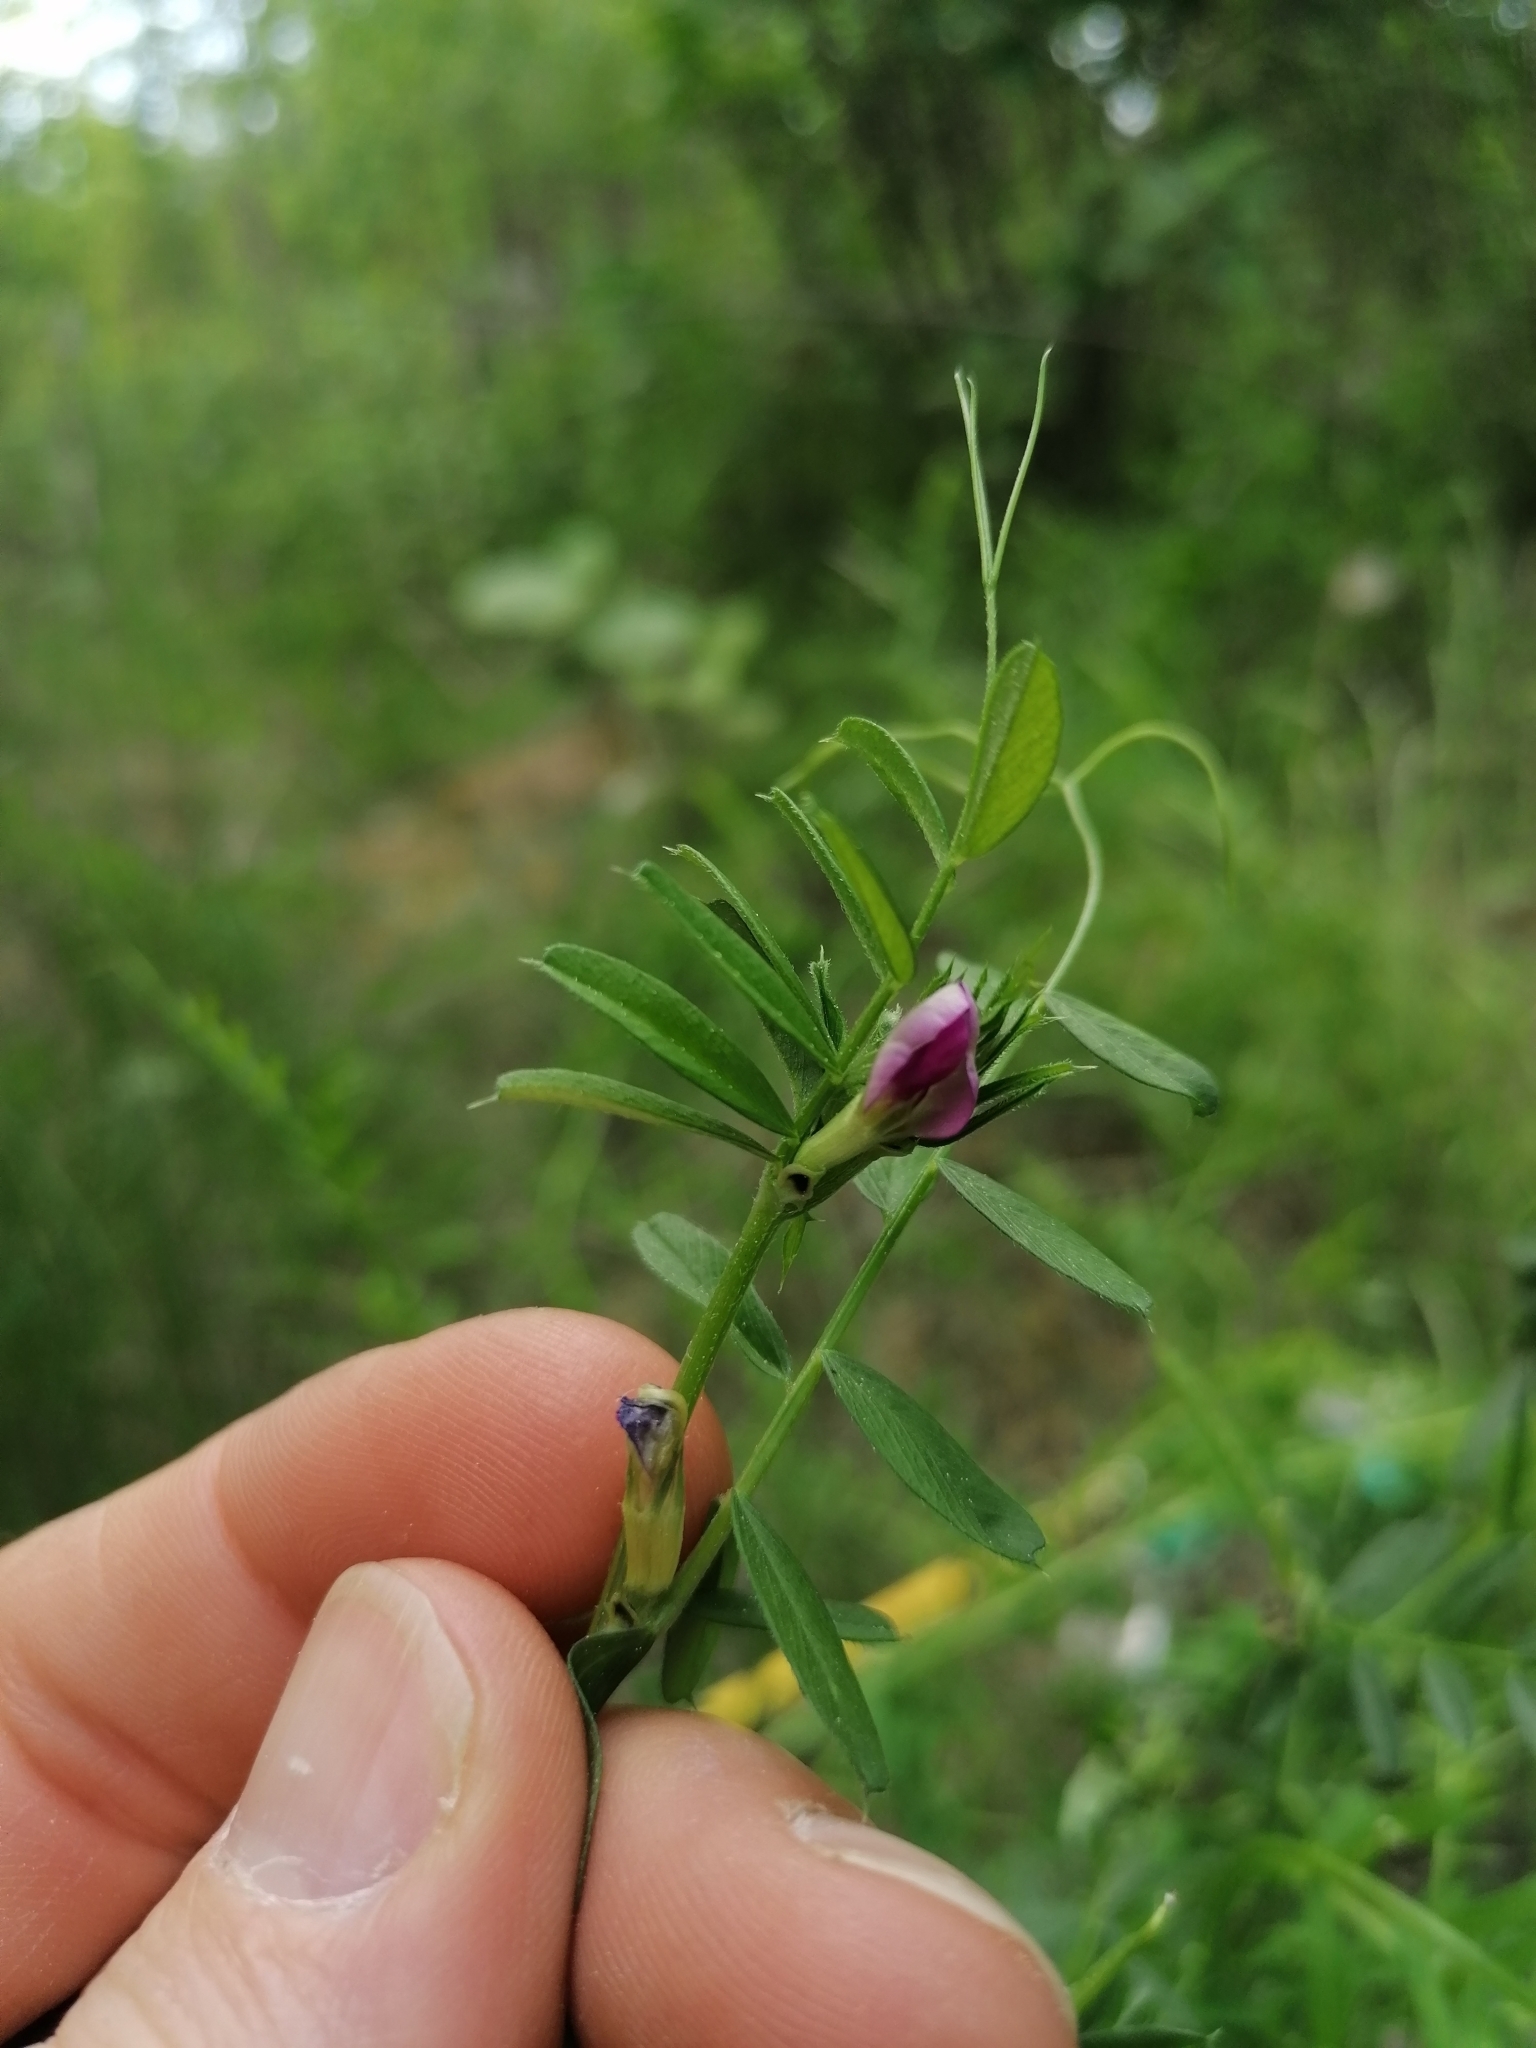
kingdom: Plantae
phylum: Tracheophyta
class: Magnoliopsida
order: Fabales
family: Fabaceae
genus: Vicia
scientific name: Vicia sativa
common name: Garden vetch
